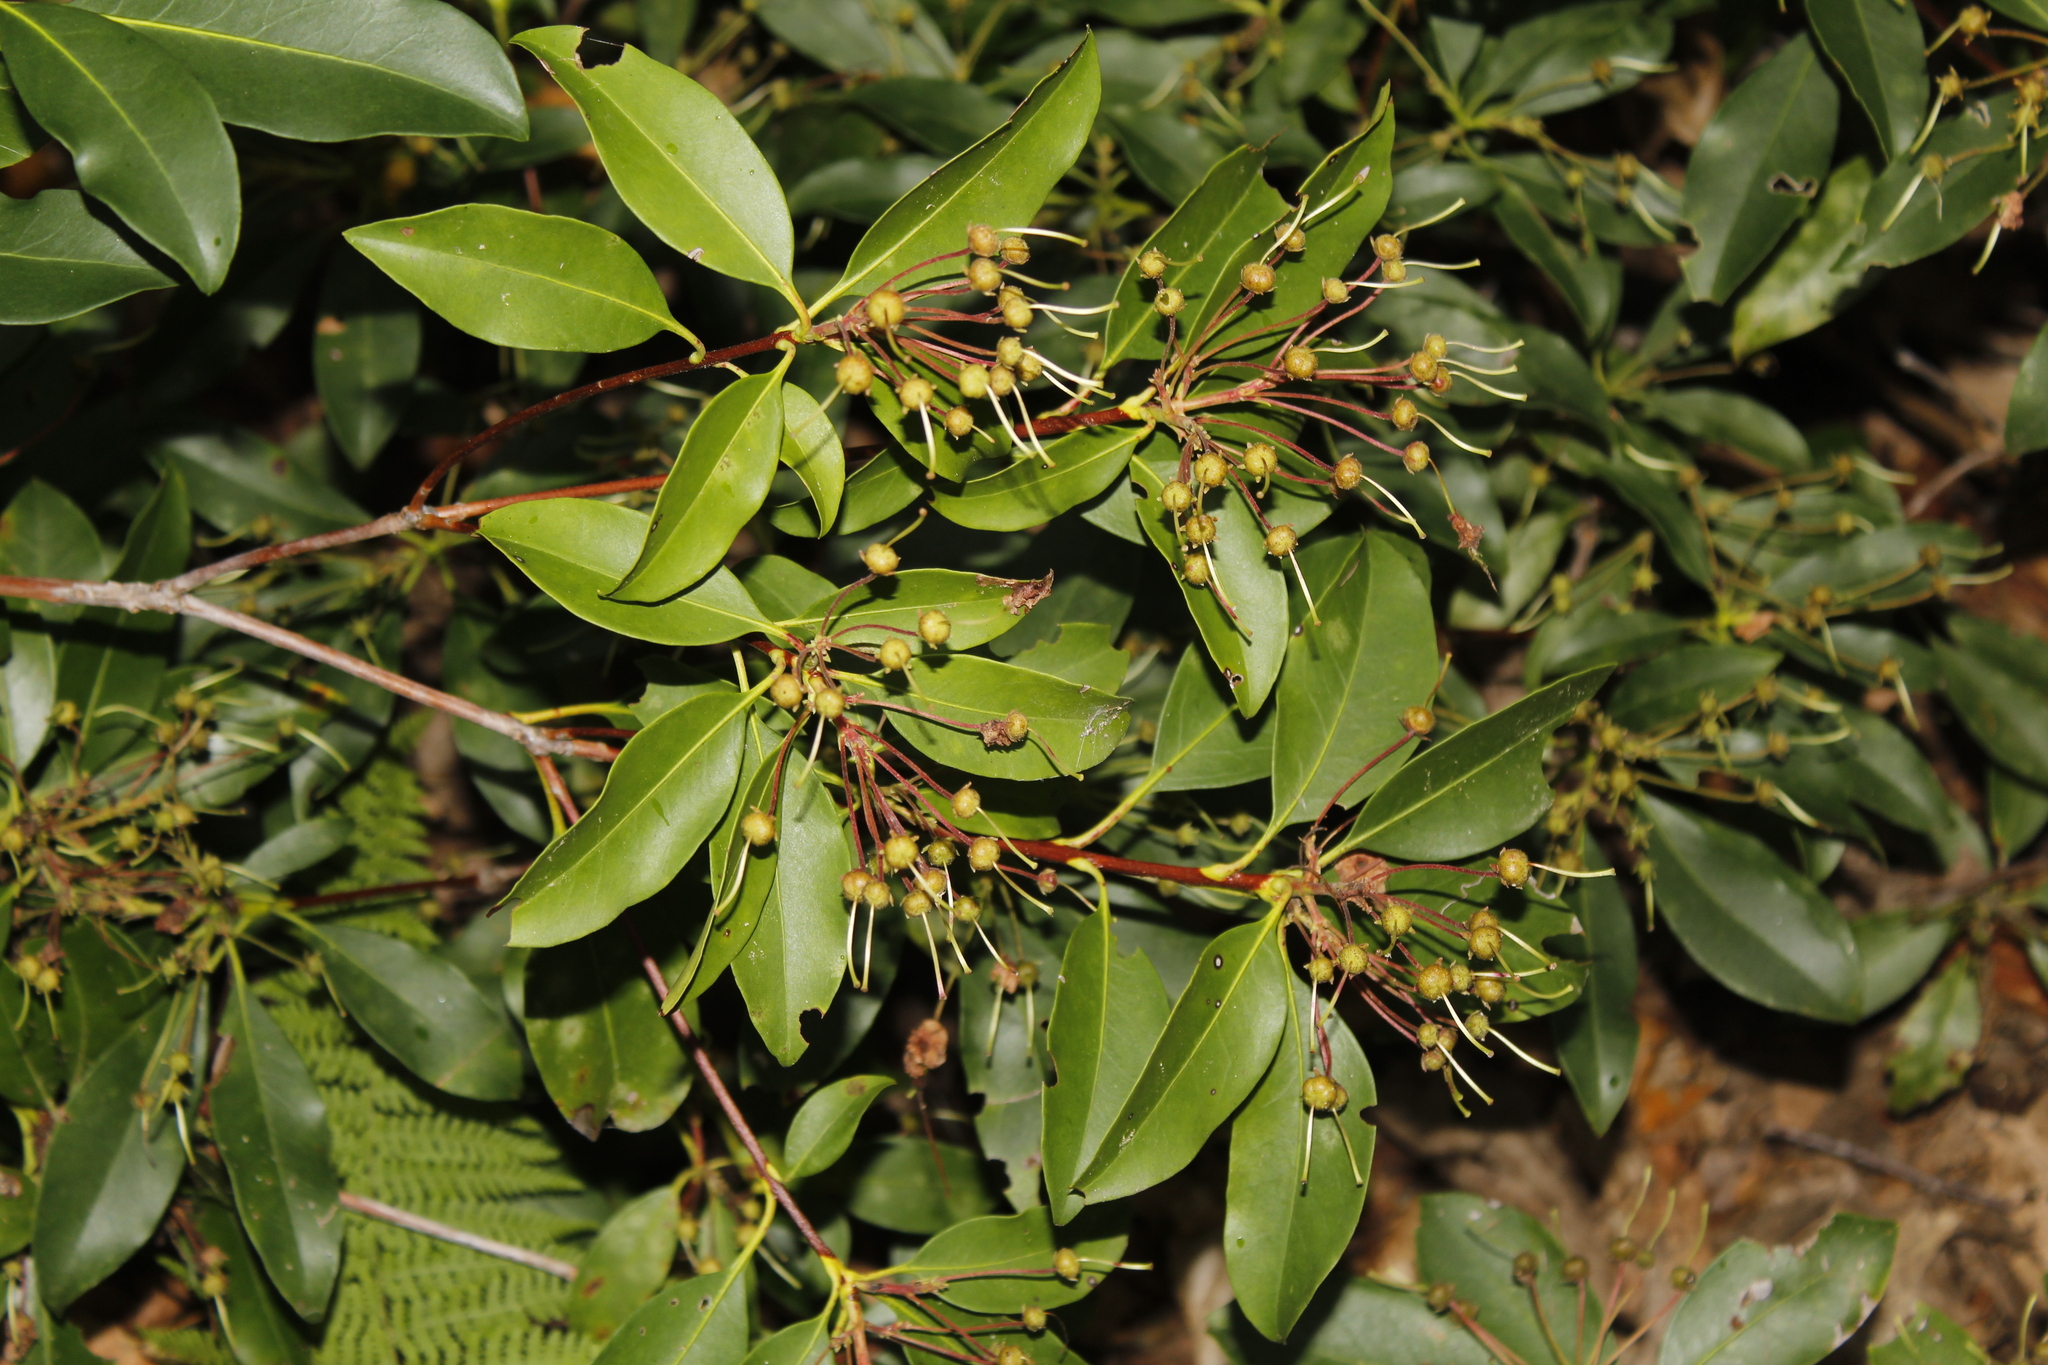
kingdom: Plantae
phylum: Tracheophyta
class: Magnoliopsida
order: Ericales
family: Ericaceae
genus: Kalmia
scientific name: Kalmia latifolia
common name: Mountain-laurel
